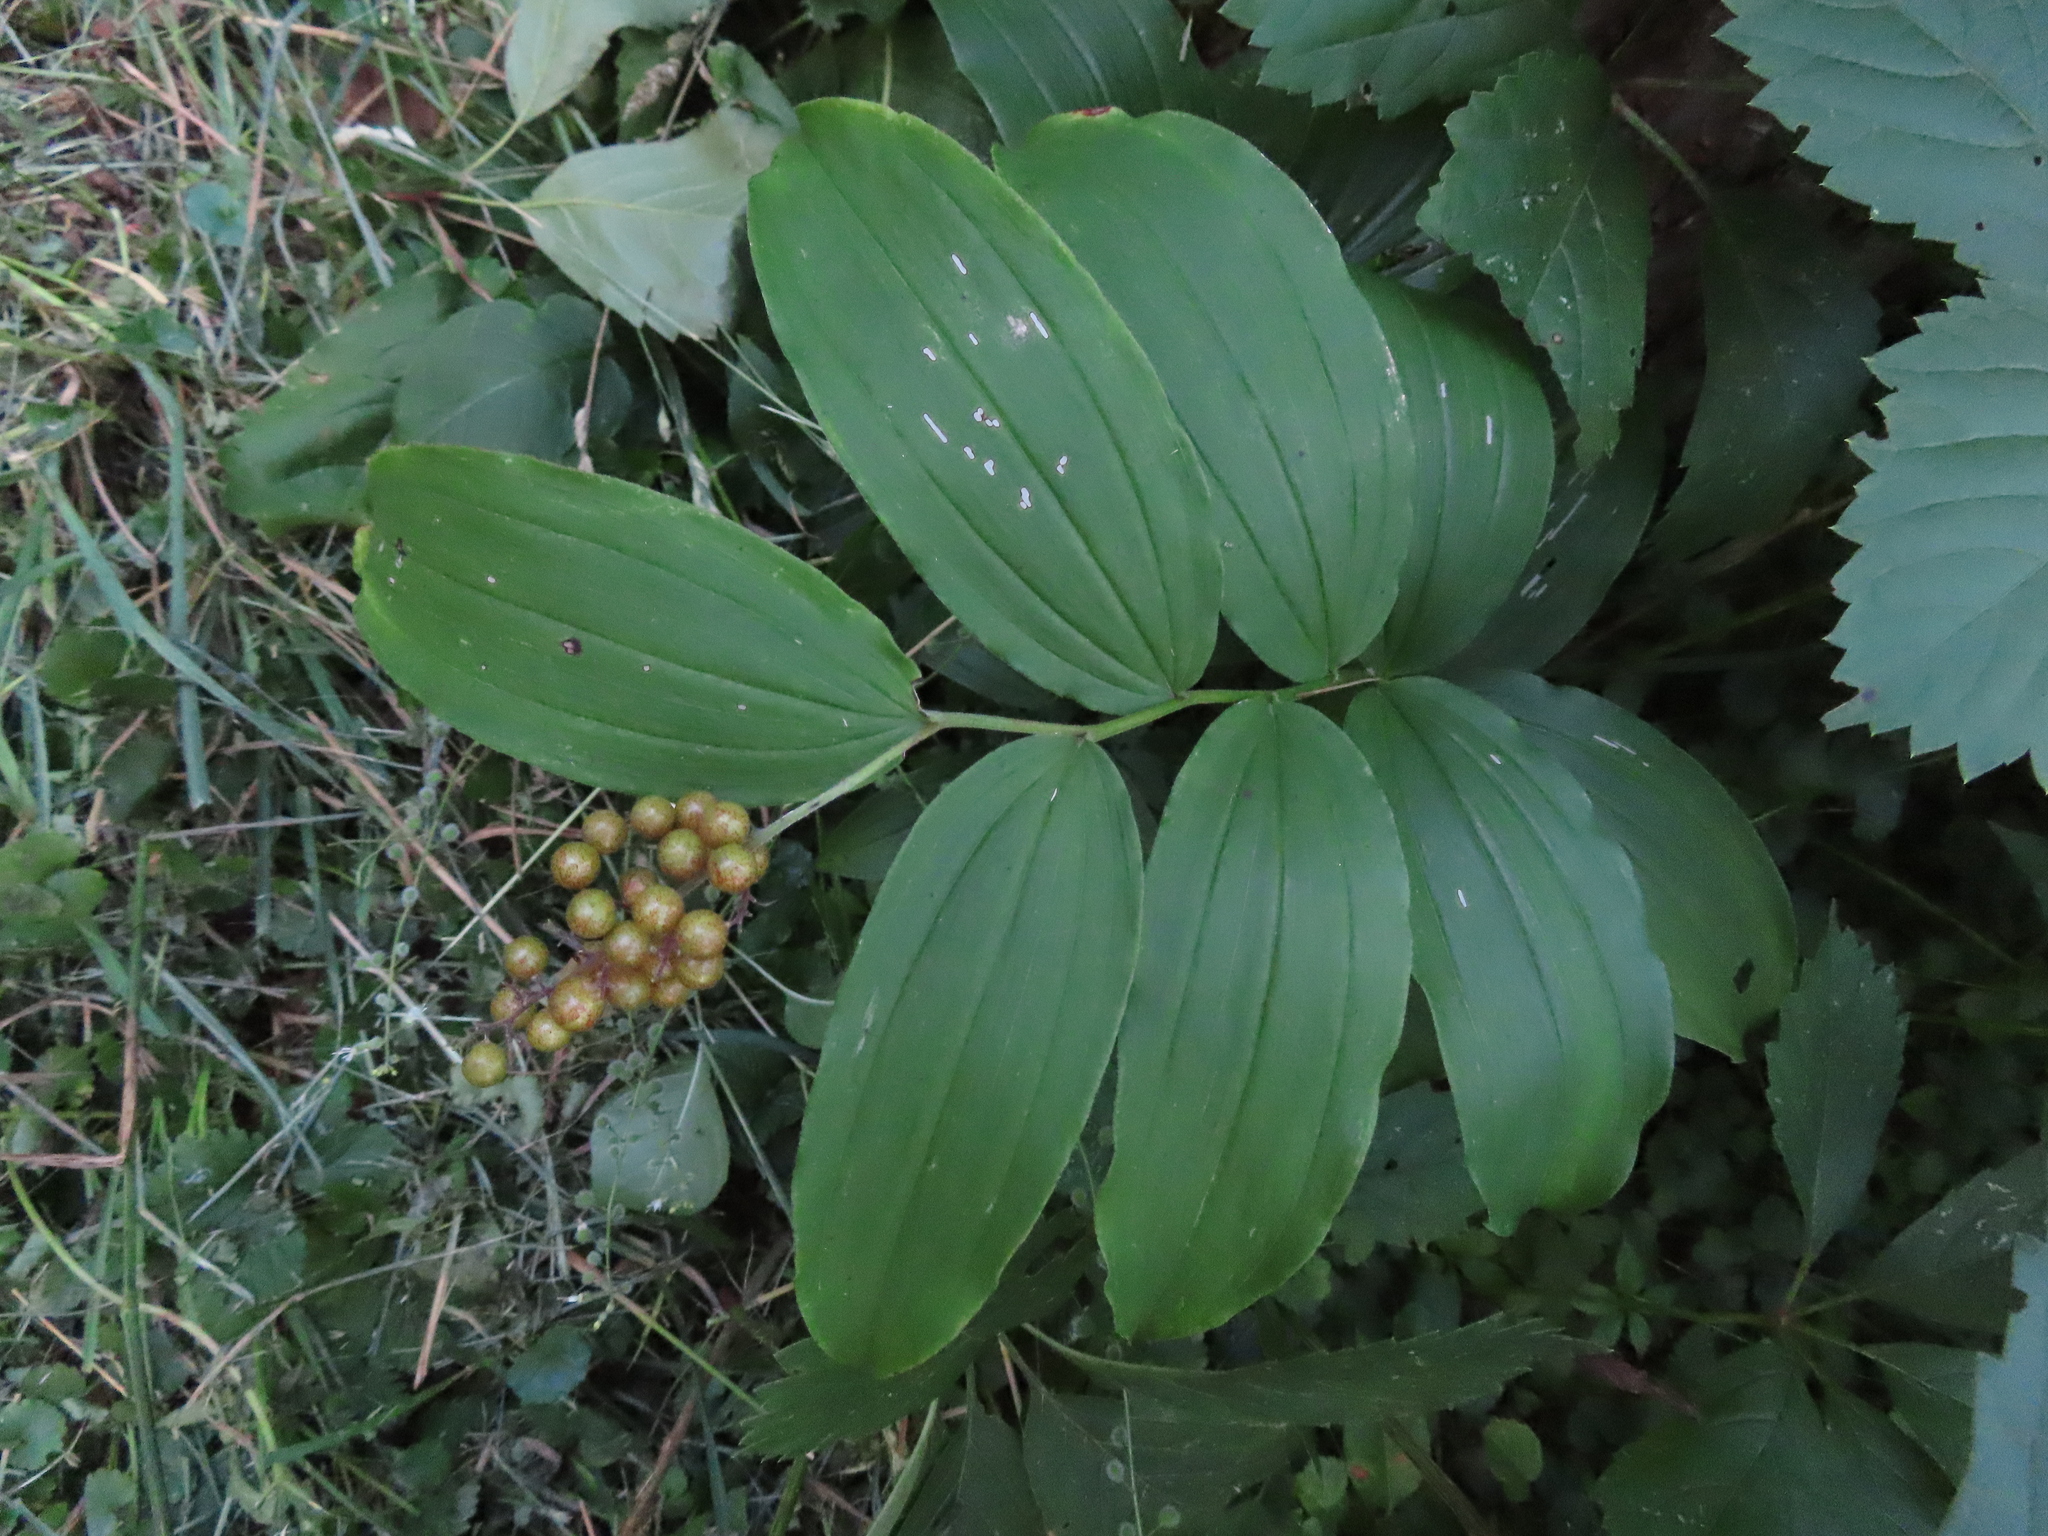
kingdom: Plantae
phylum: Tracheophyta
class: Liliopsida
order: Asparagales
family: Asparagaceae
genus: Maianthemum
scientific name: Maianthemum racemosum
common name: False spikenard
